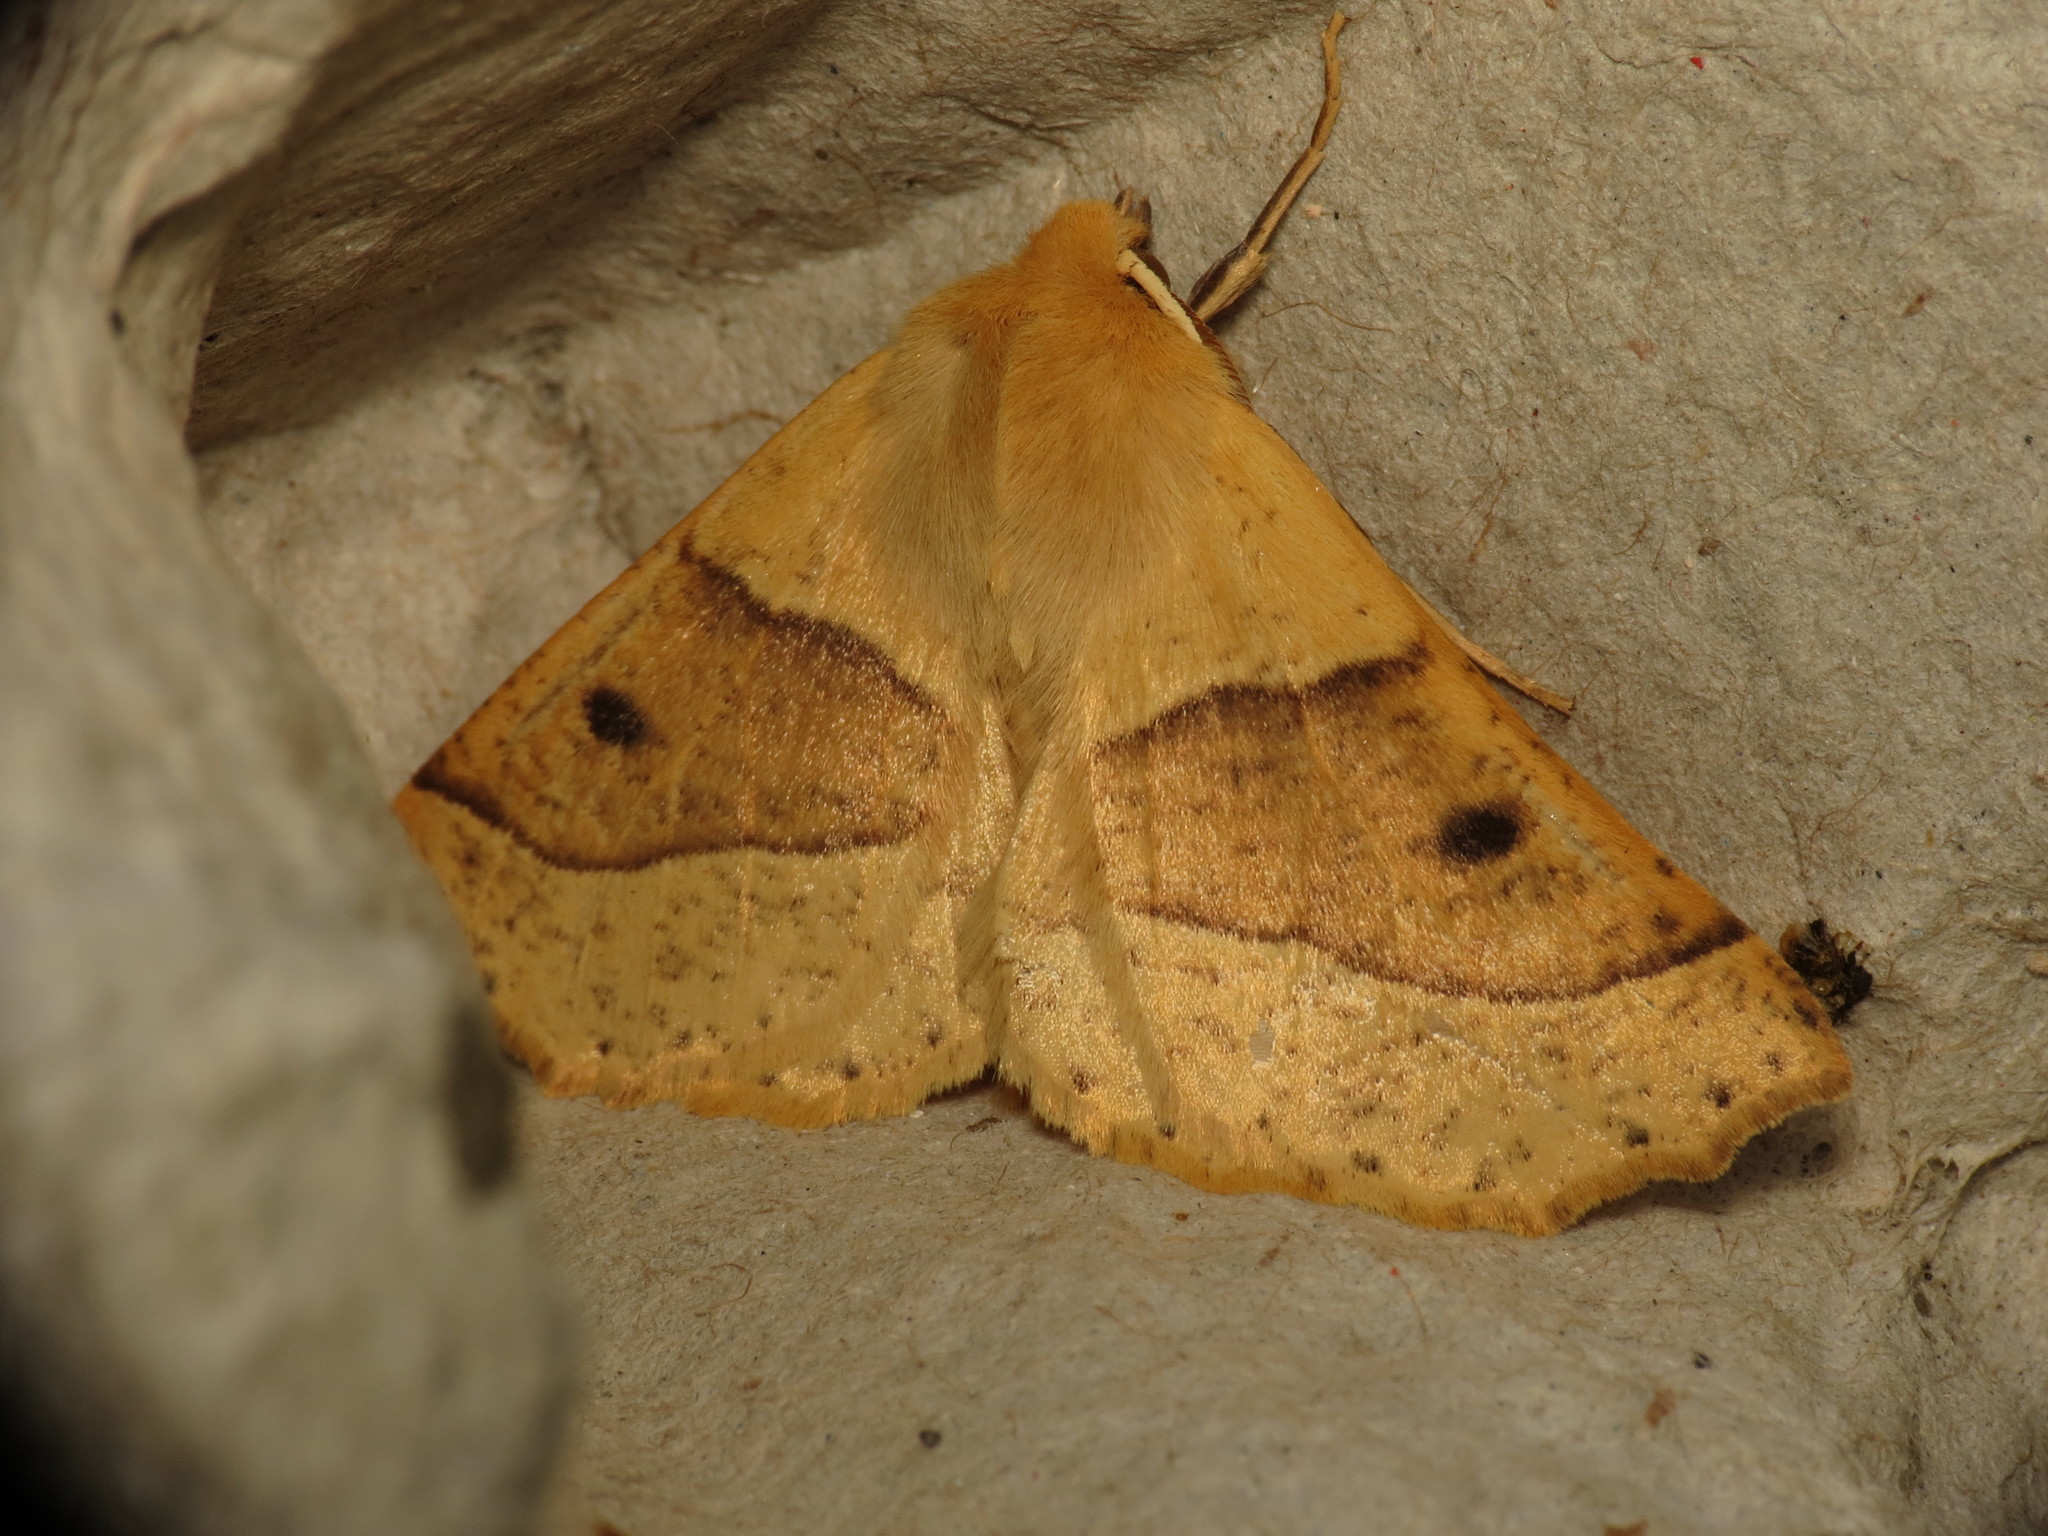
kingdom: Animalia
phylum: Arthropoda
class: Insecta
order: Lepidoptera
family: Geometridae
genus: Crocallis
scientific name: Crocallis elinguaria
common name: Scalloped oak
